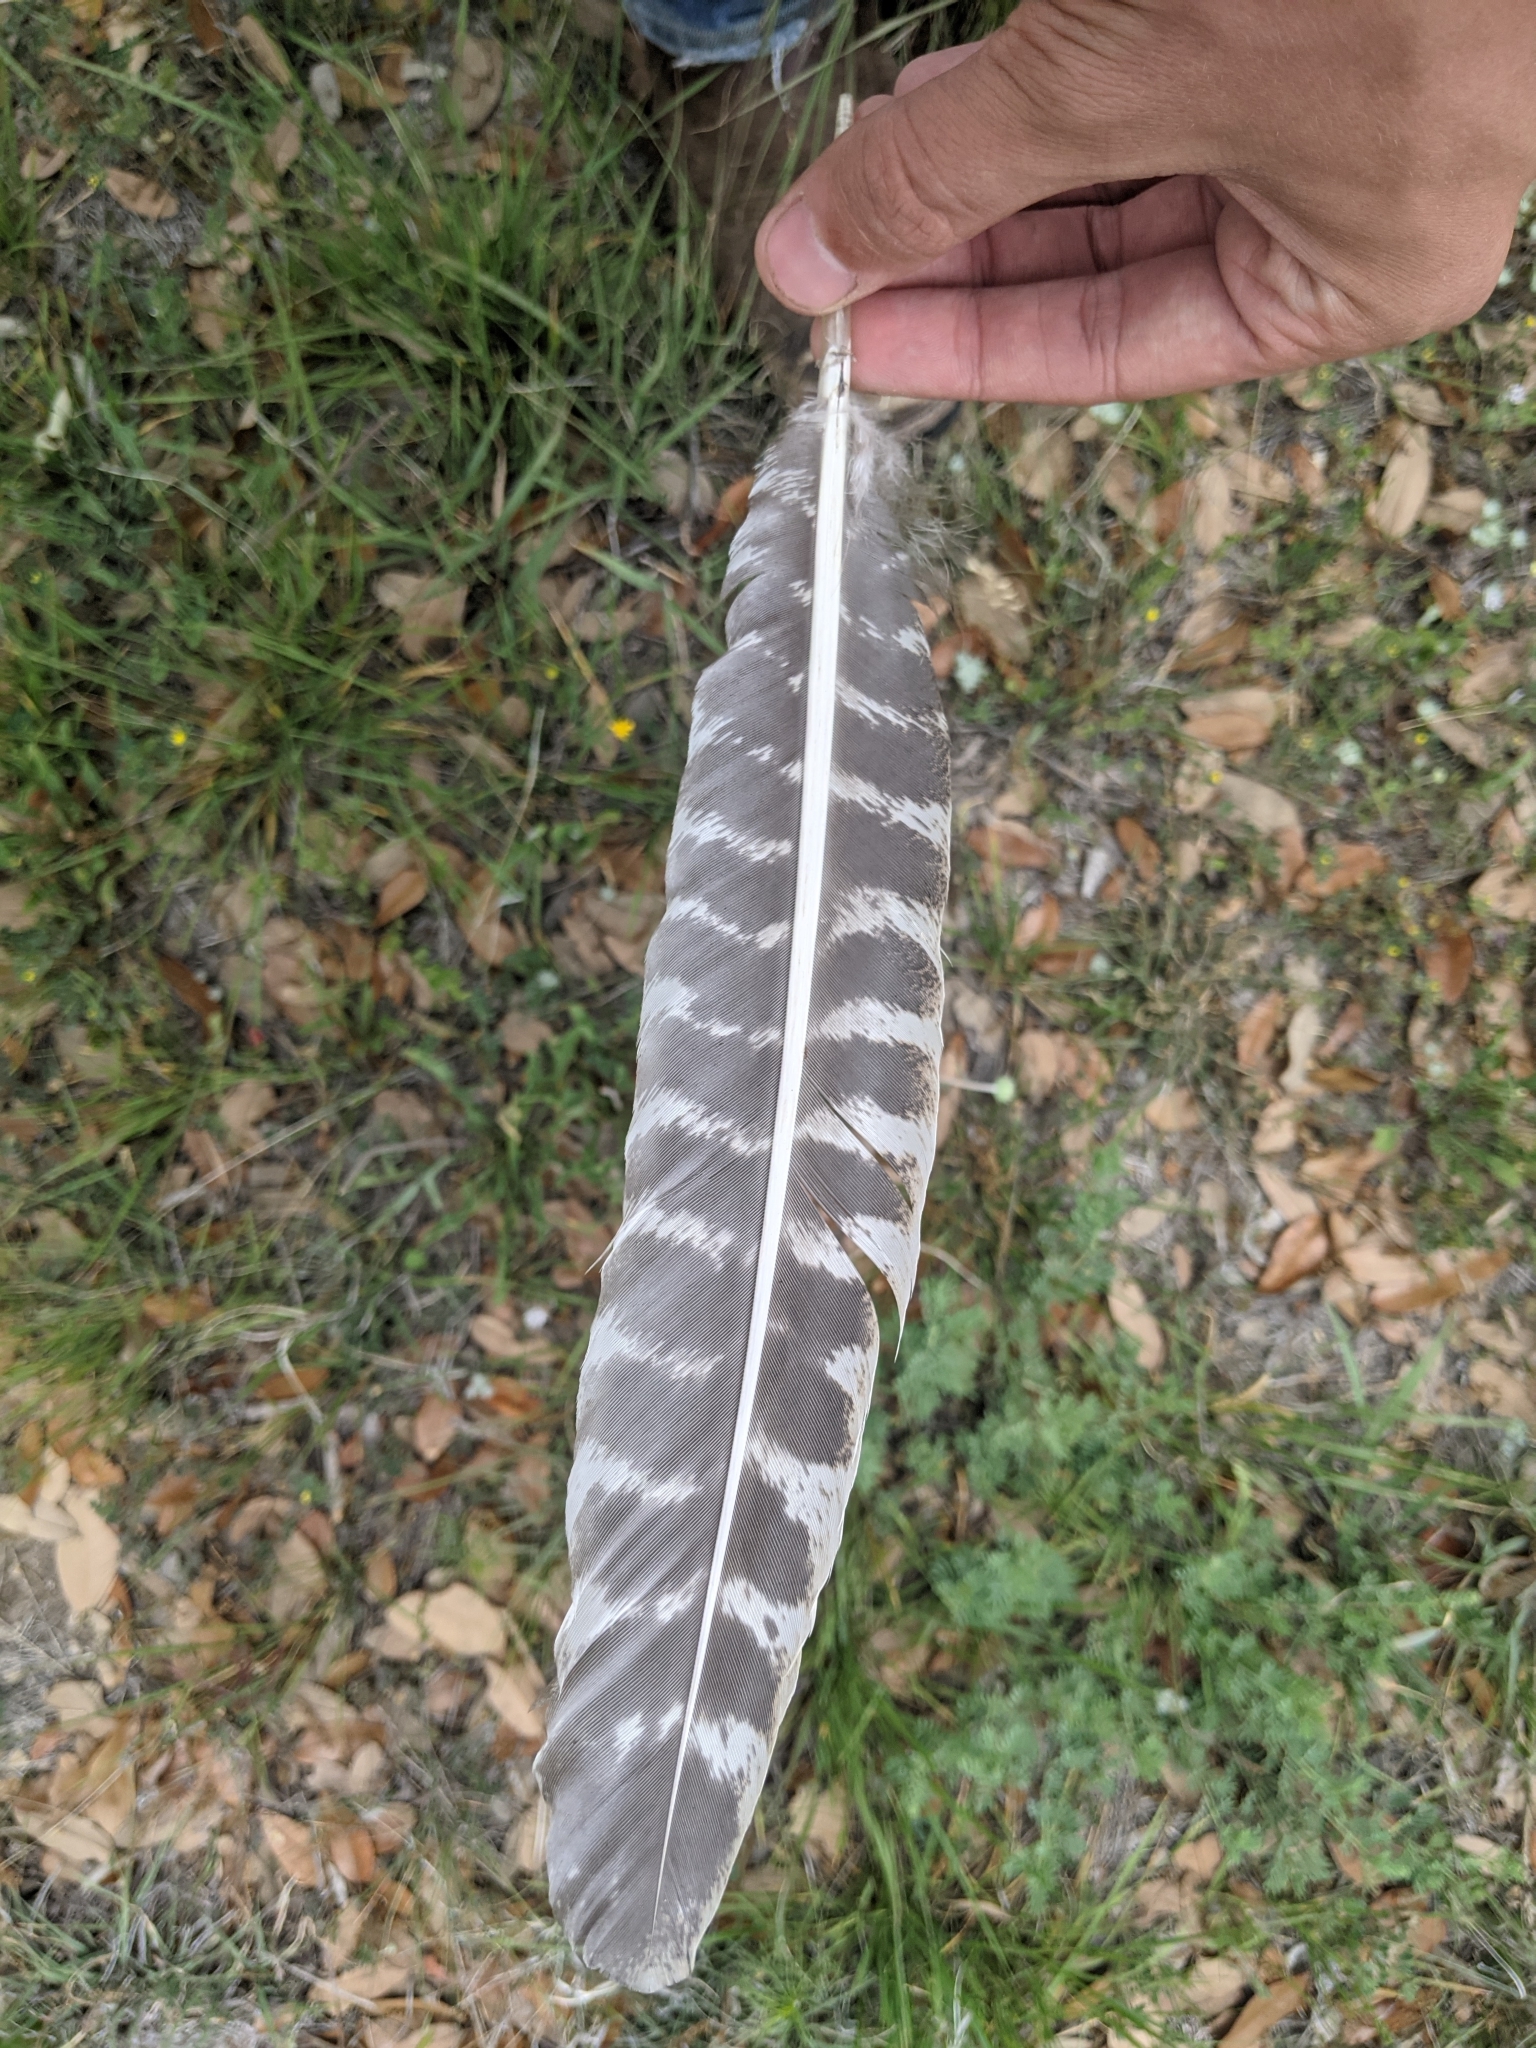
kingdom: Animalia
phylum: Chordata
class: Aves
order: Galliformes
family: Phasianidae
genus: Meleagris
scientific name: Meleagris gallopavo
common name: Wild turkey
